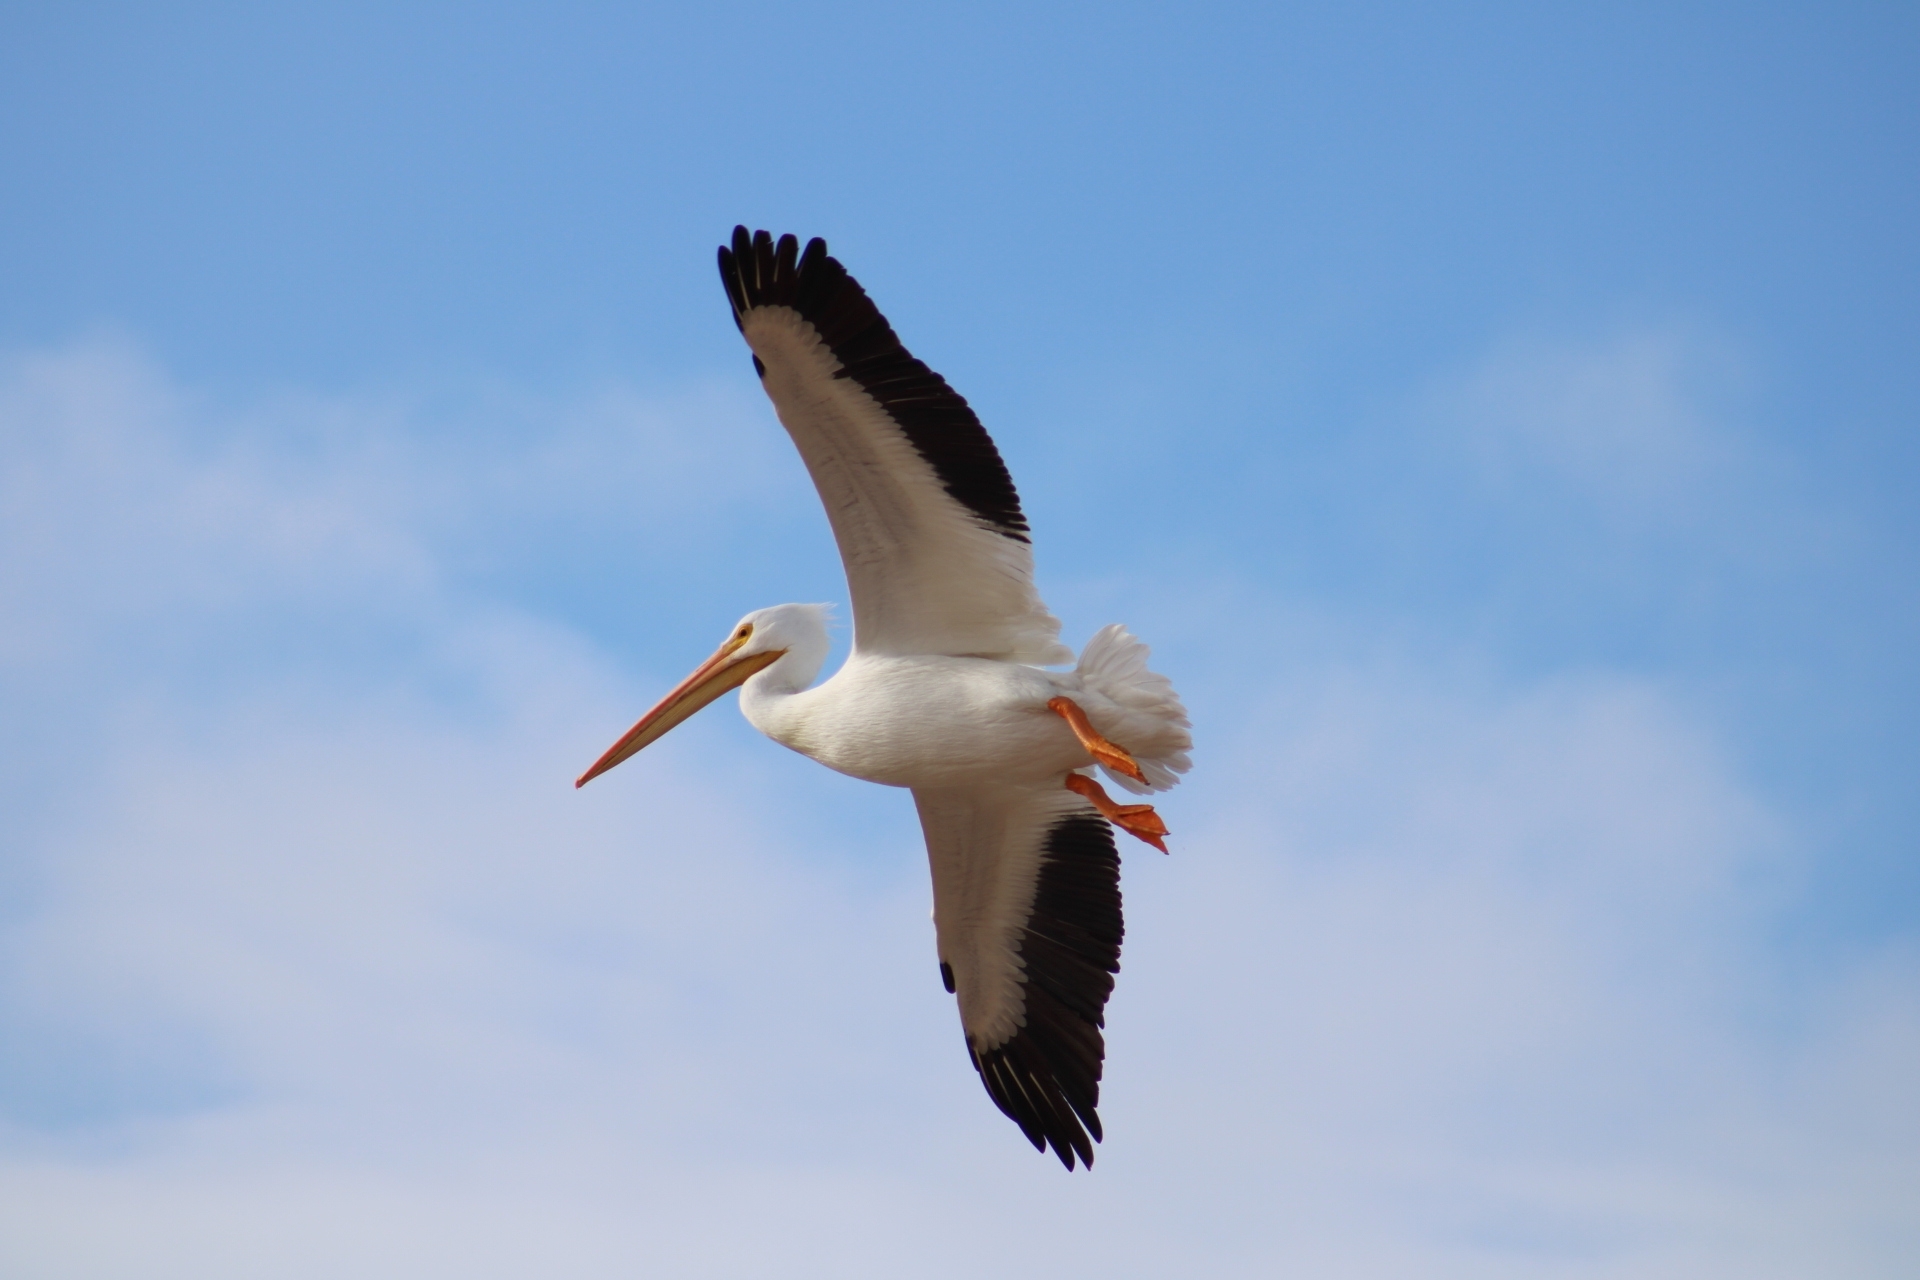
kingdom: Animalia
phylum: Chordata
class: Aves
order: Pelecaniformes
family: Pelecanidae
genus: Pelecanus
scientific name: Pelecanus erythrorhynchos
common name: American white pelican
